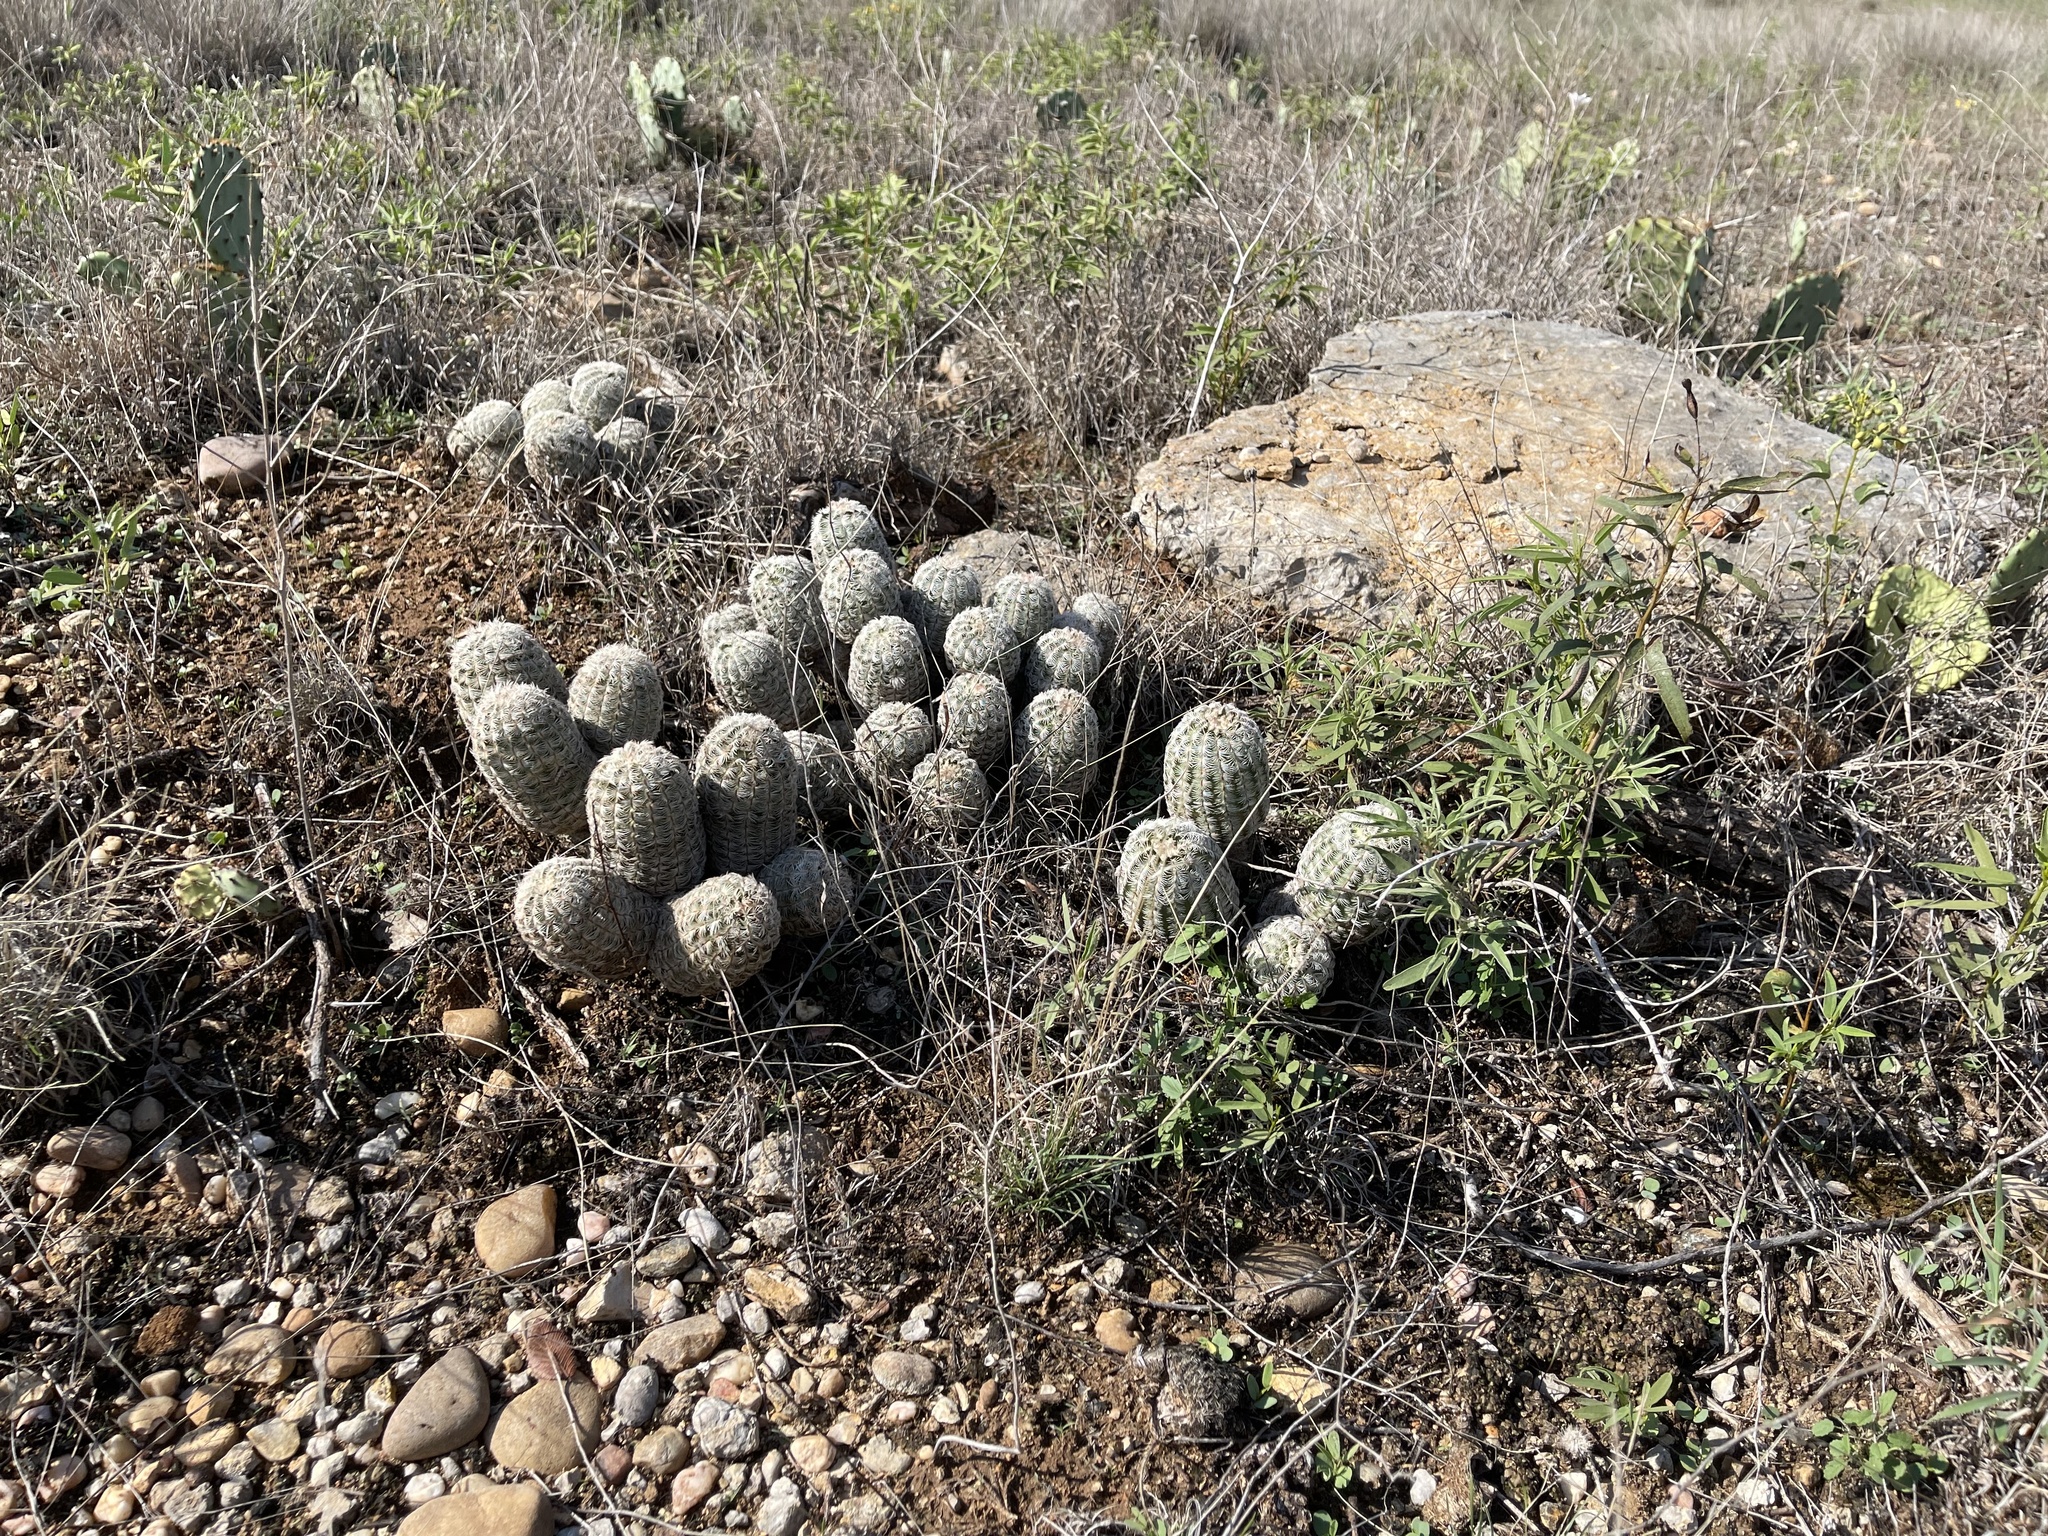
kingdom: Plantae
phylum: Tracheophyta
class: Magnoliopsida
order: Caryophyllales
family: Cactaceae
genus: Echinocereus
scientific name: Echinocereus reichenbachii
